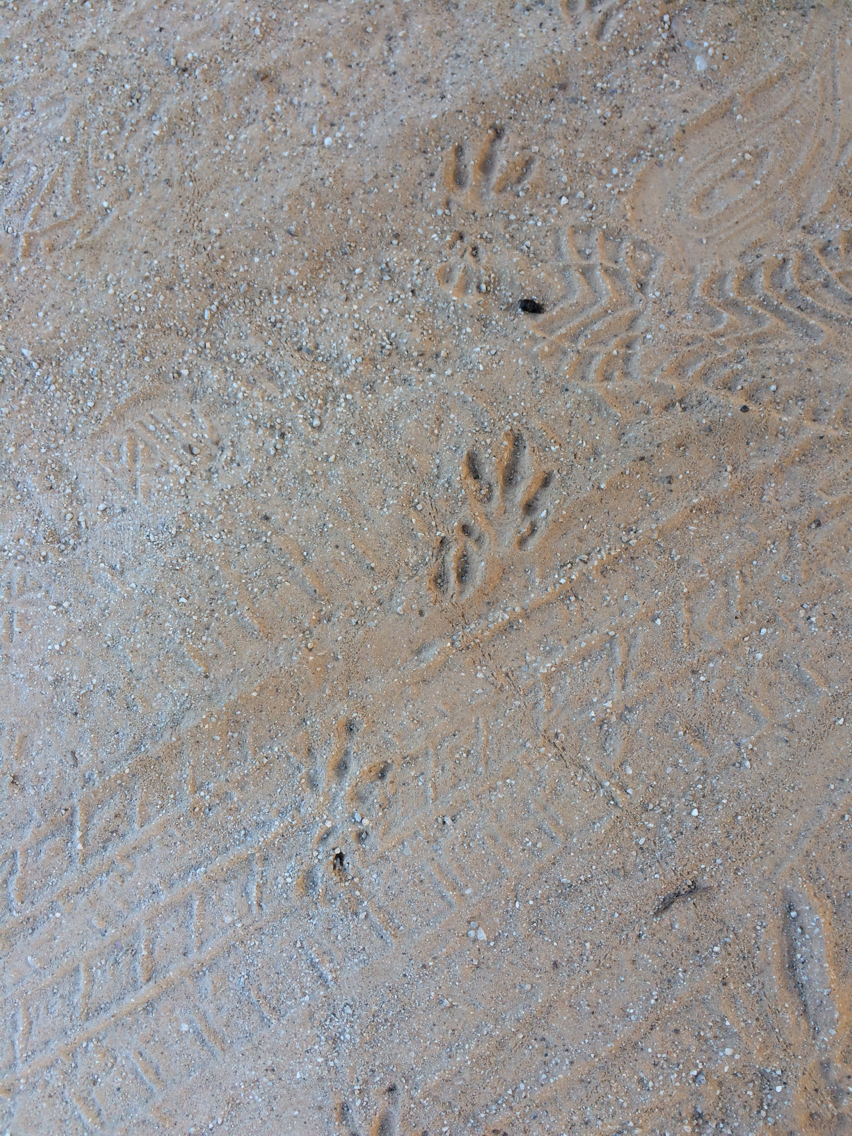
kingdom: Animalia
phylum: Chordata
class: Mammalia
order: Cingulata
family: Dasypodidae
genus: Dasypus
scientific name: Dasypus novemcinctus
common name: Nine-banded armadillo
